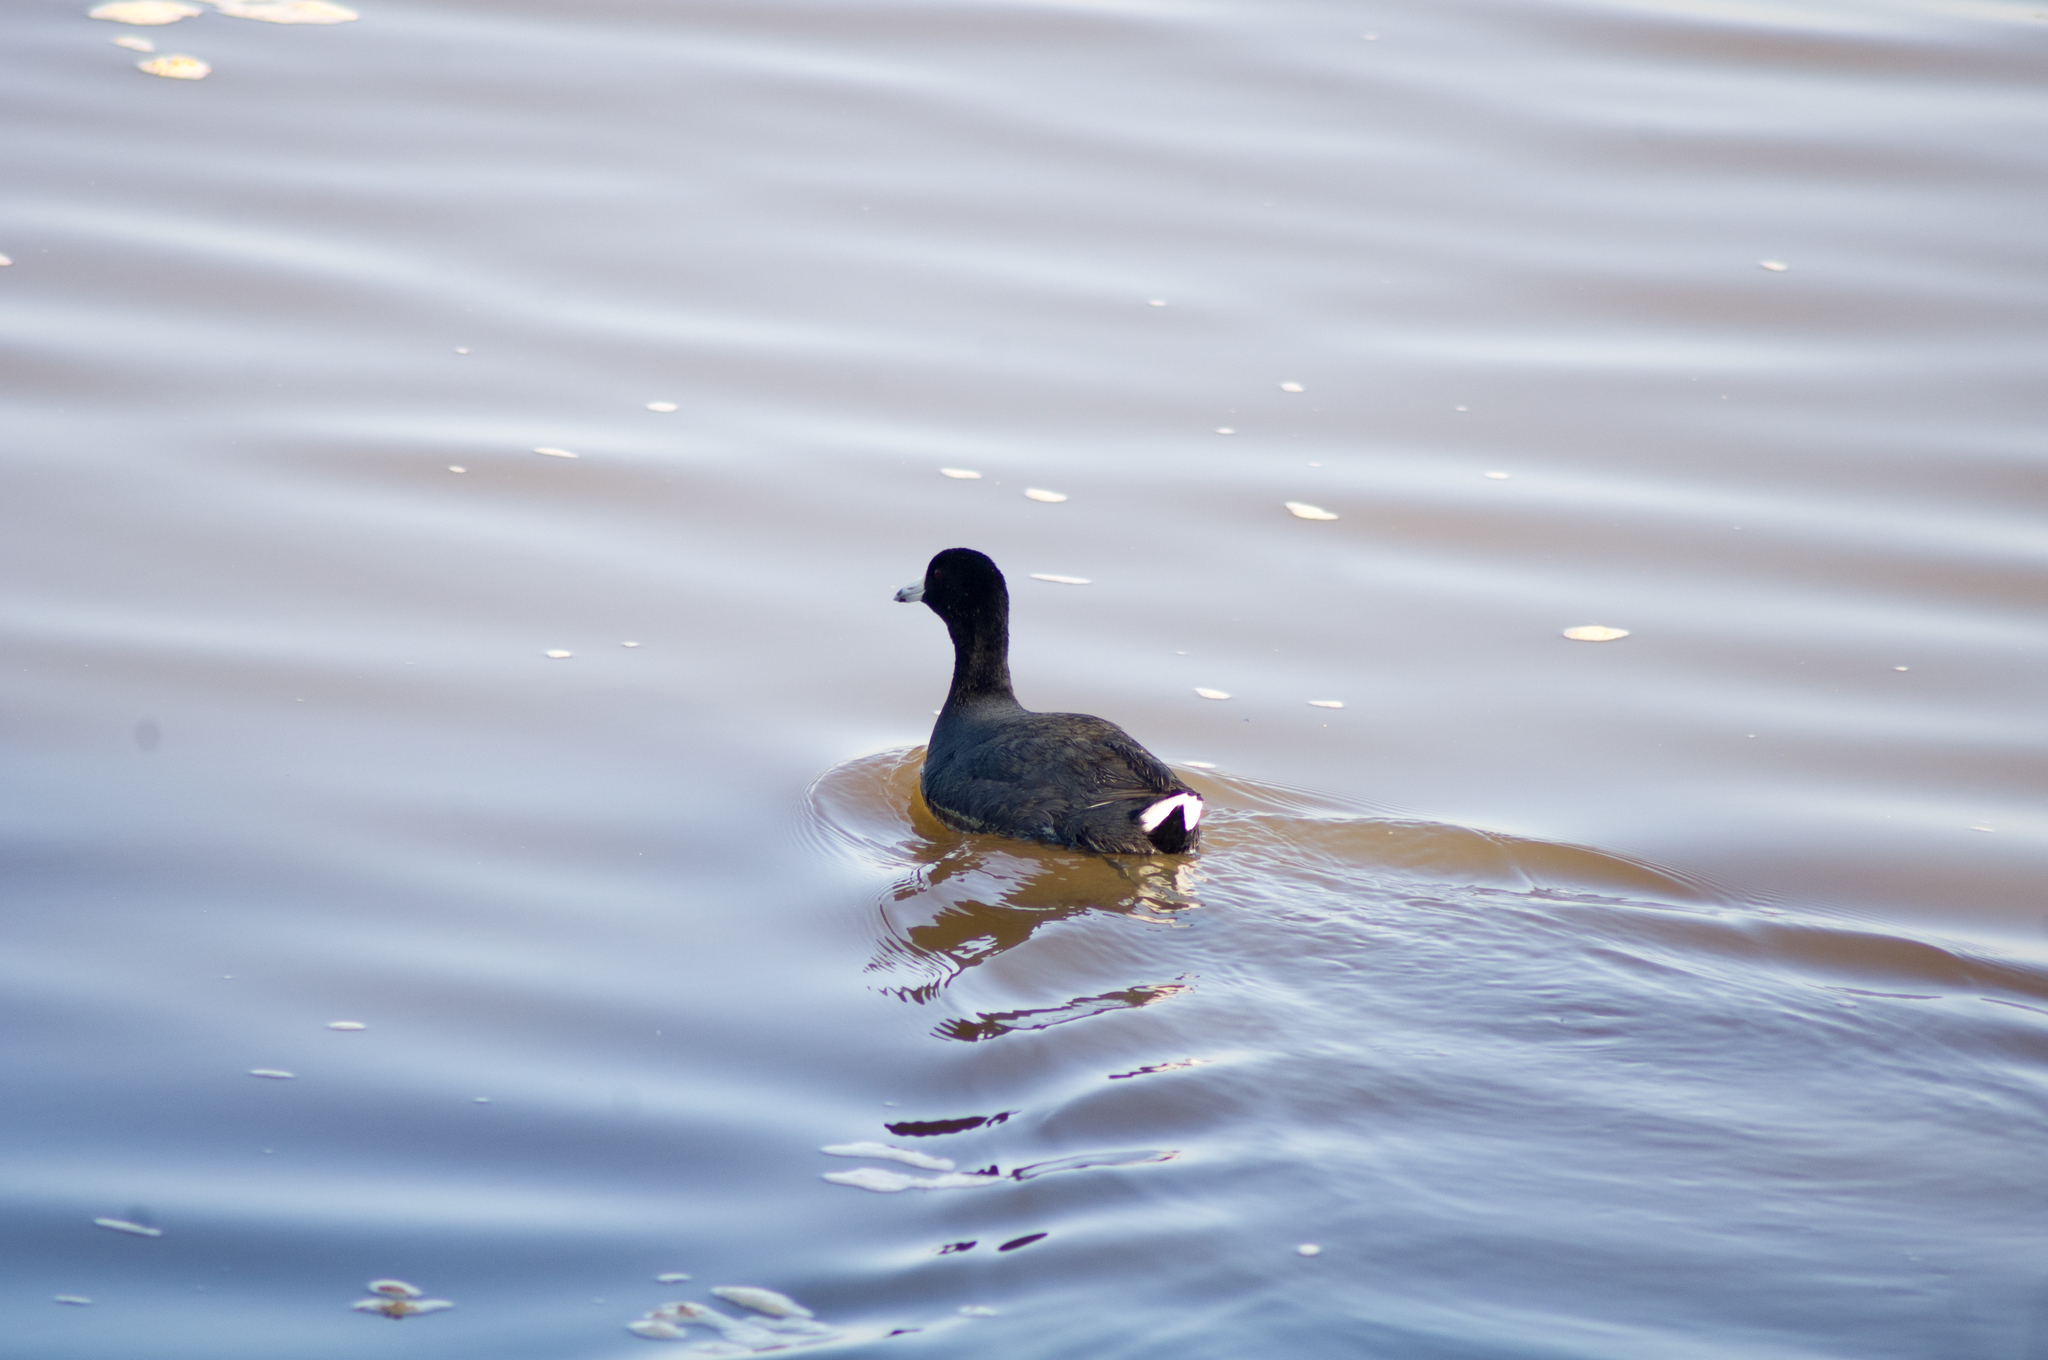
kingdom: Animalia
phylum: Chordata
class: Aves
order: Gruiformes
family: Rallidae
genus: Fulica
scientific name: Fulica americana
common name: American coot
